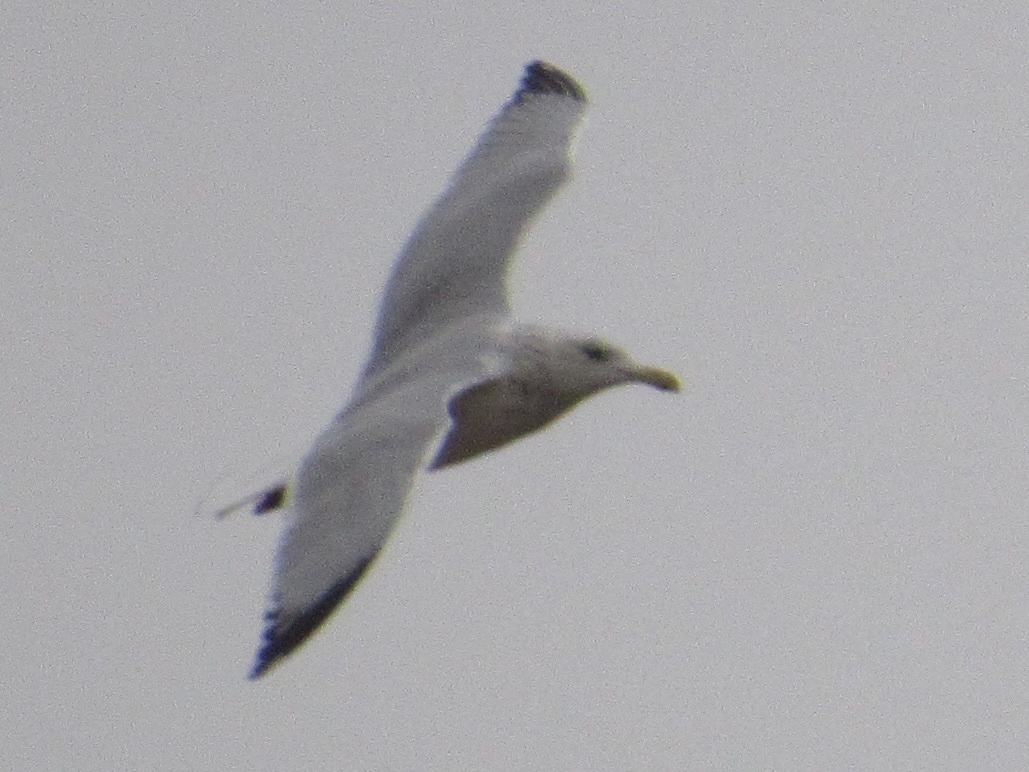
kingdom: Animalia
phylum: Chordata
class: Aves
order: Charadriiformes
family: Laridae
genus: Larus
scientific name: Larus argentatus
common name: Herring gull
